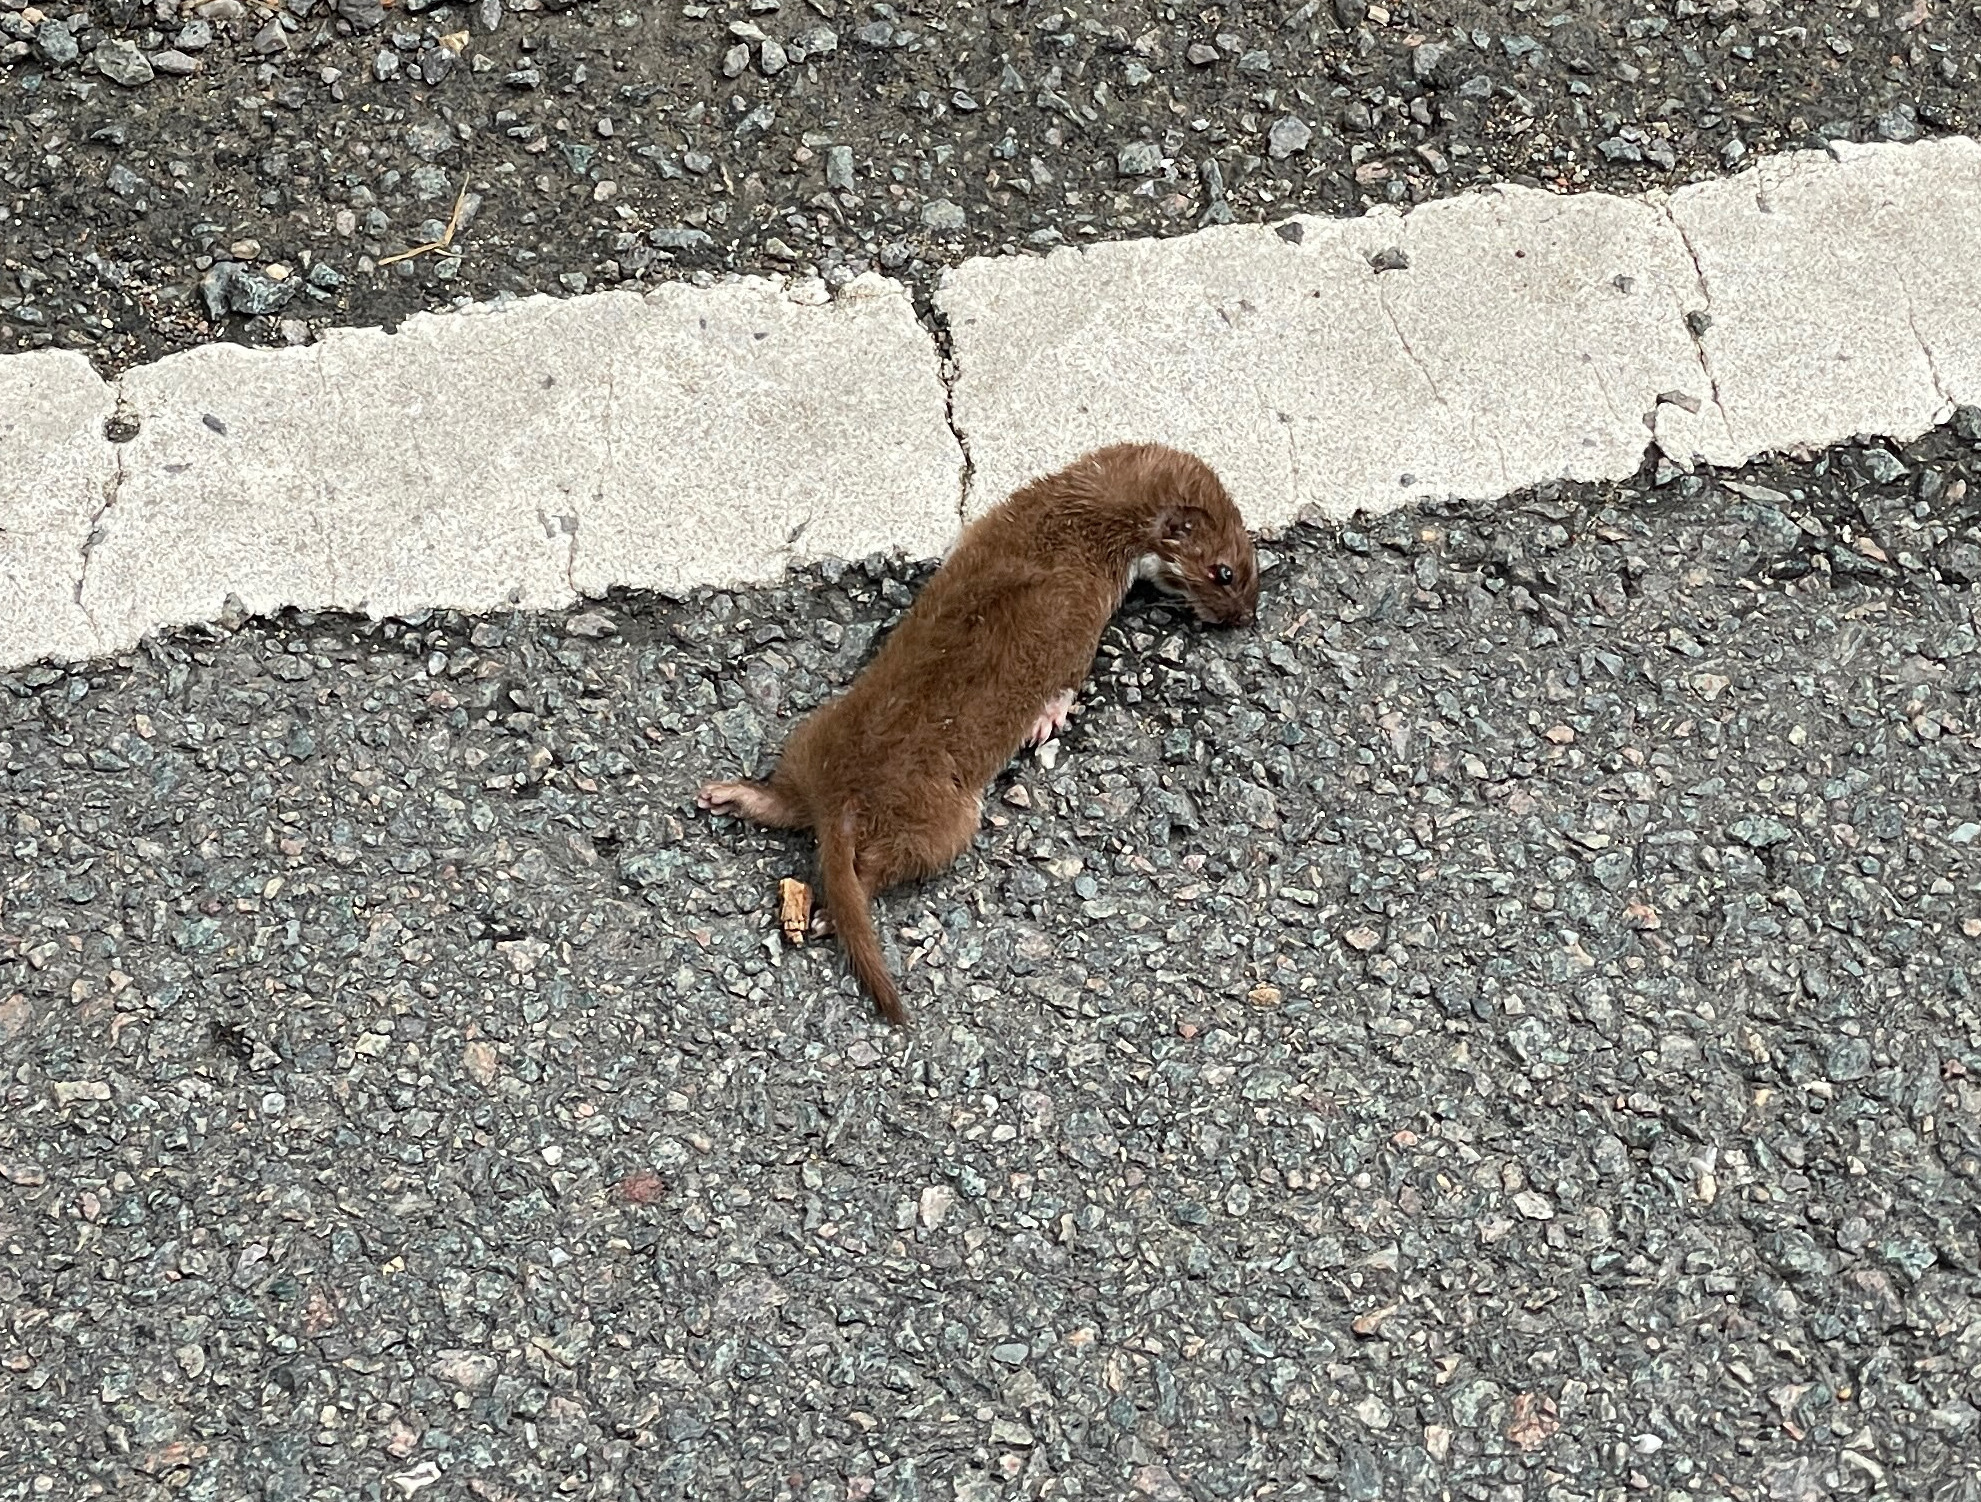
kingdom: Animalia
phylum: Chordata
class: Mammalia
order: Carnivora
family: Mustelidae
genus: Mustela
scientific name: Mustela nivalis
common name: Least weasel
